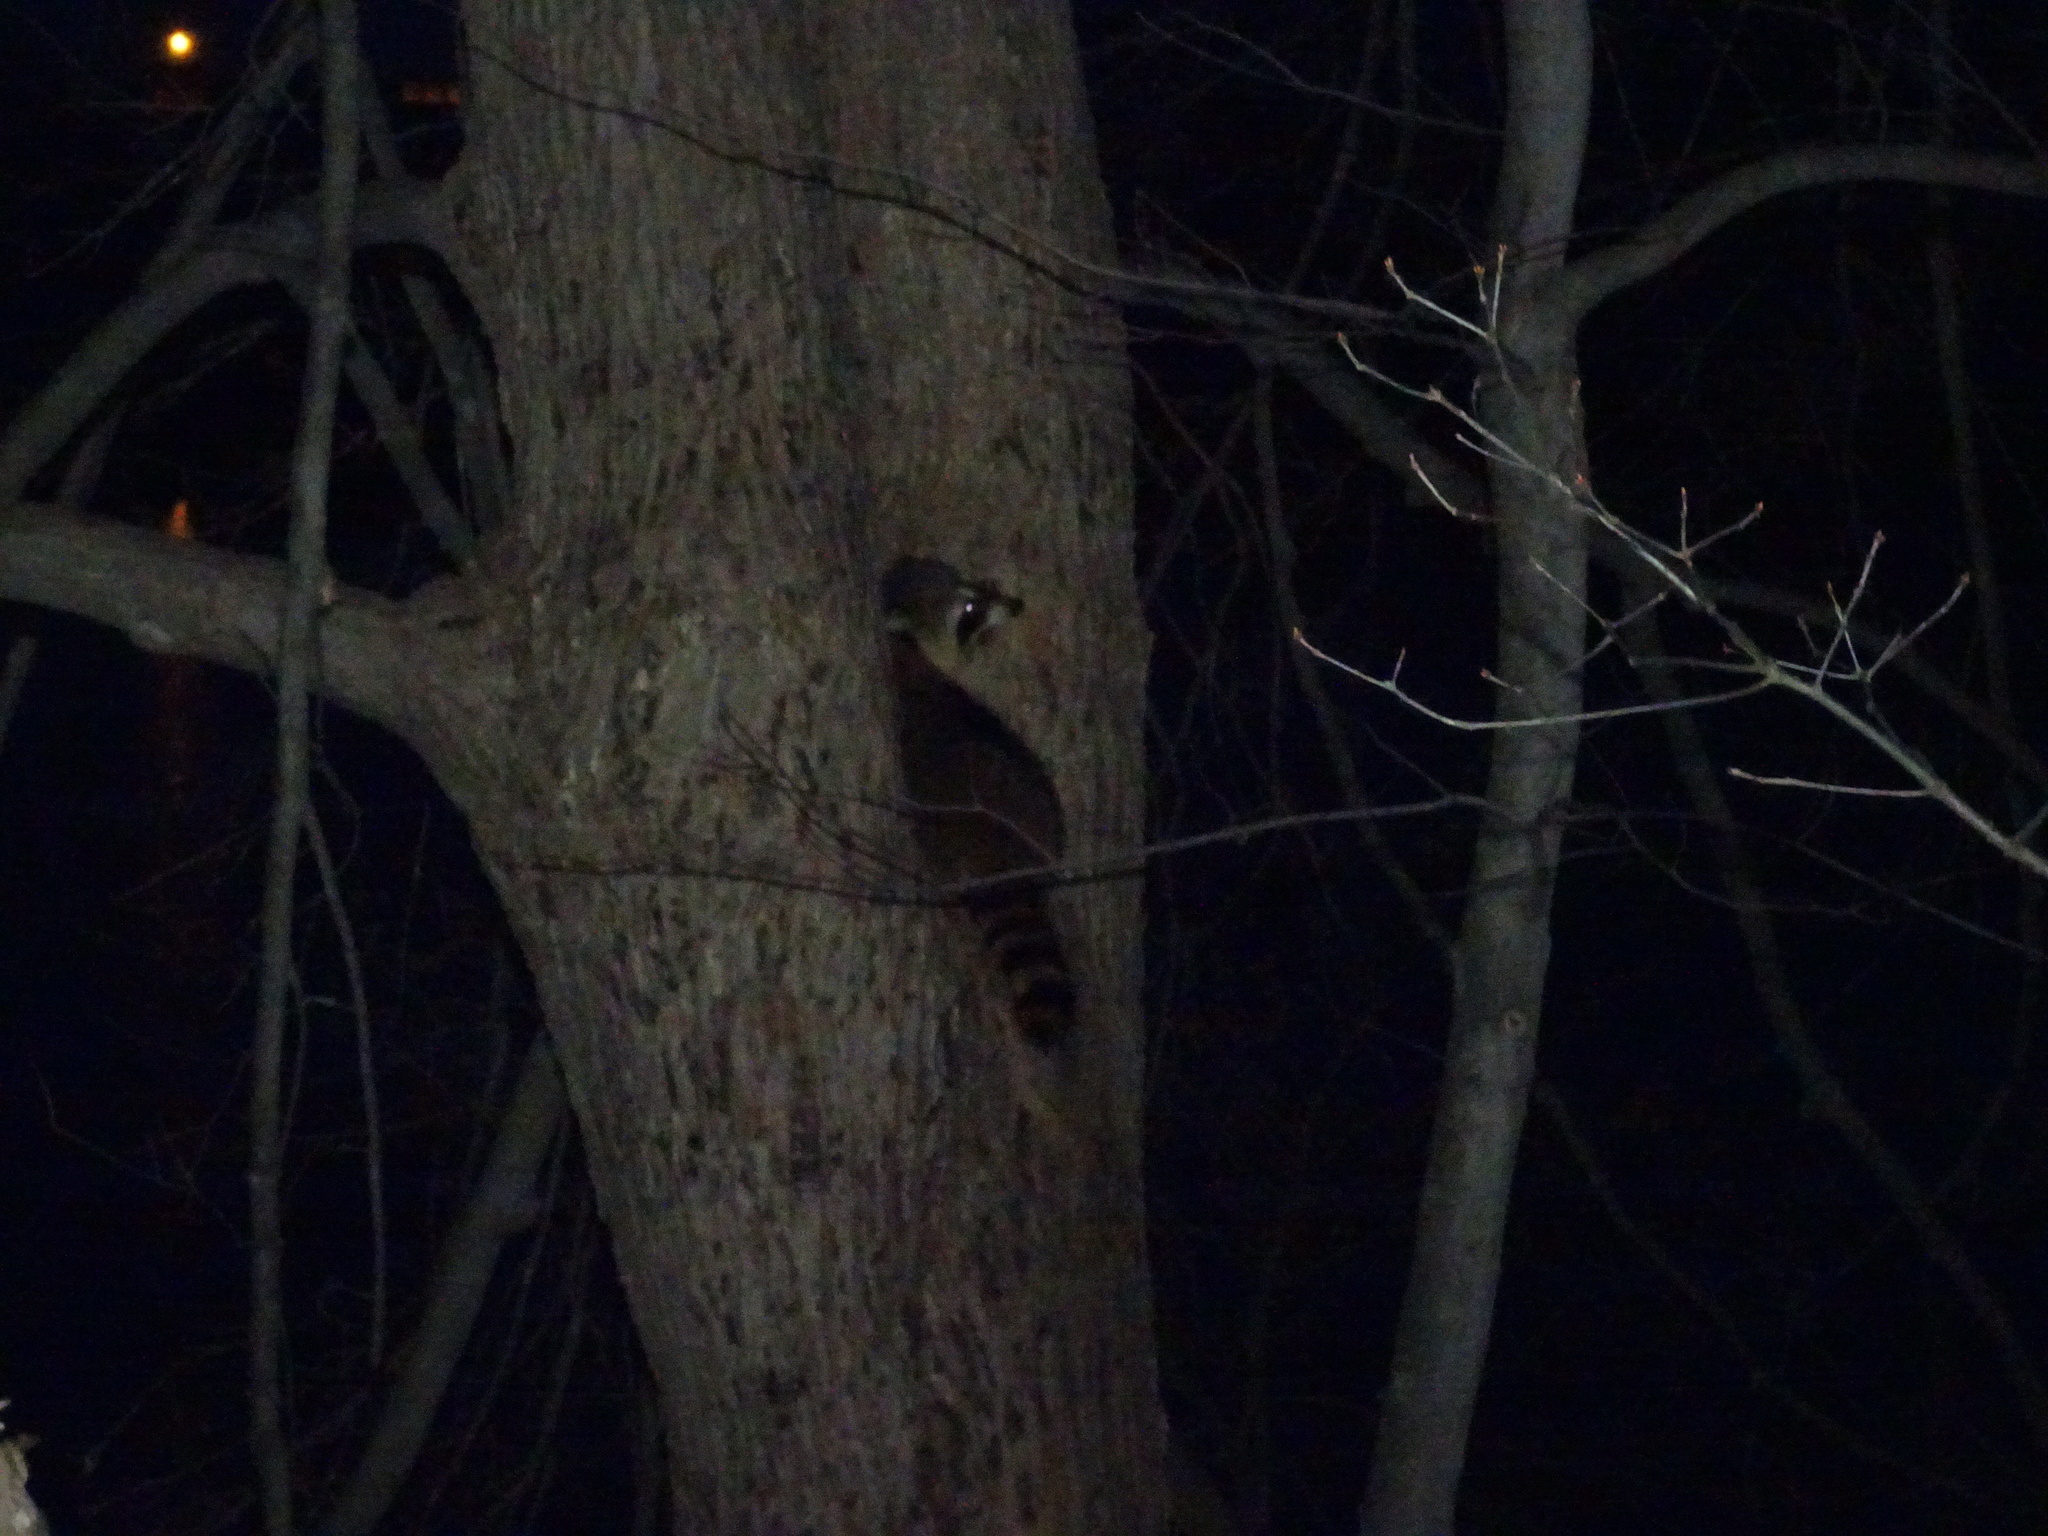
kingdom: Animalia
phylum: Chordata
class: Mammalia
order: Carnivora
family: Procyonidae
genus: Procyon
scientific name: Procyon lotor
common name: Raccoon
